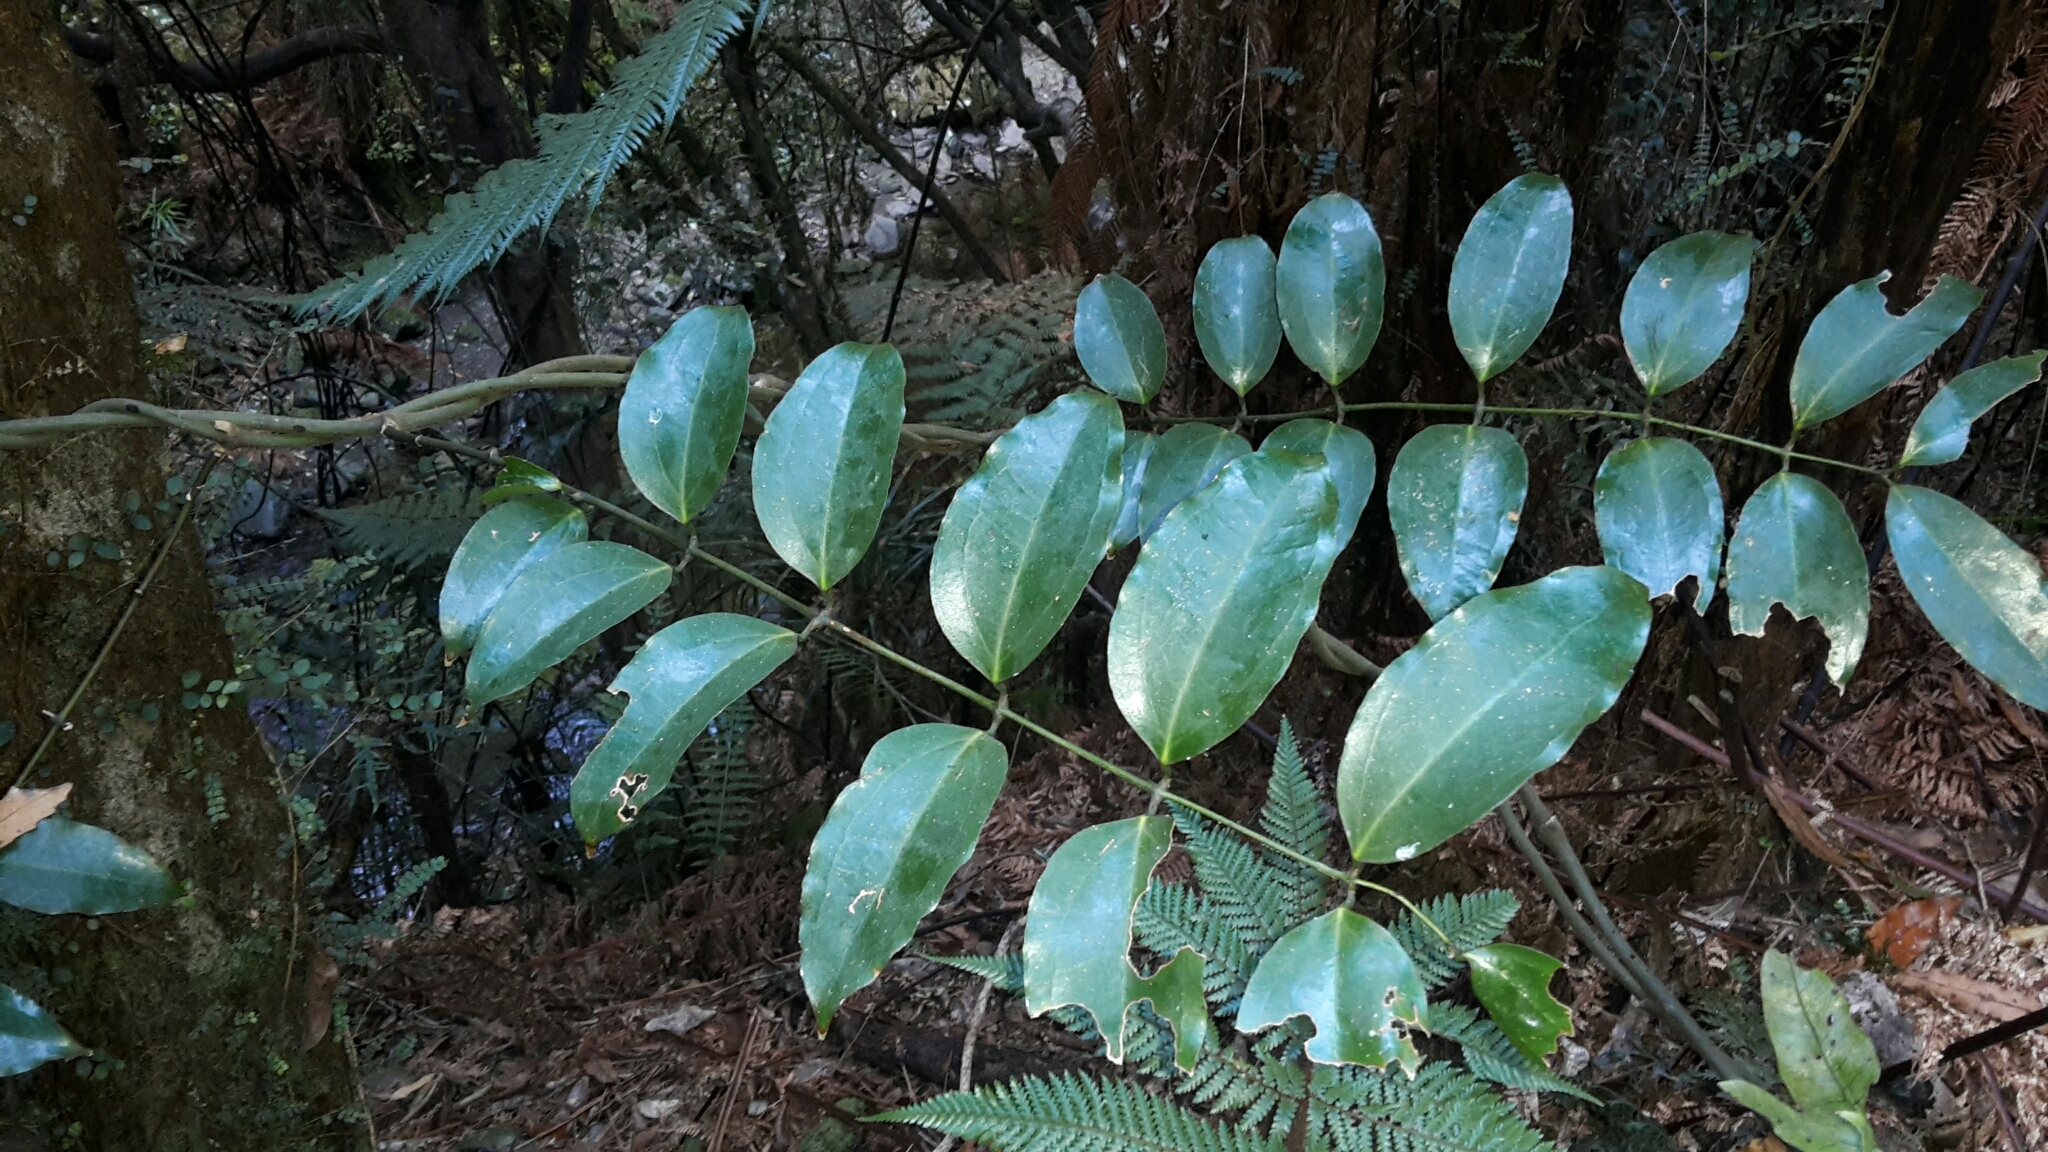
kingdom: Plantae
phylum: Tracheophyta
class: Liliopsida
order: Liliales
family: Ripogonaceae
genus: Ripogonum
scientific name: Ripogonum scandens
